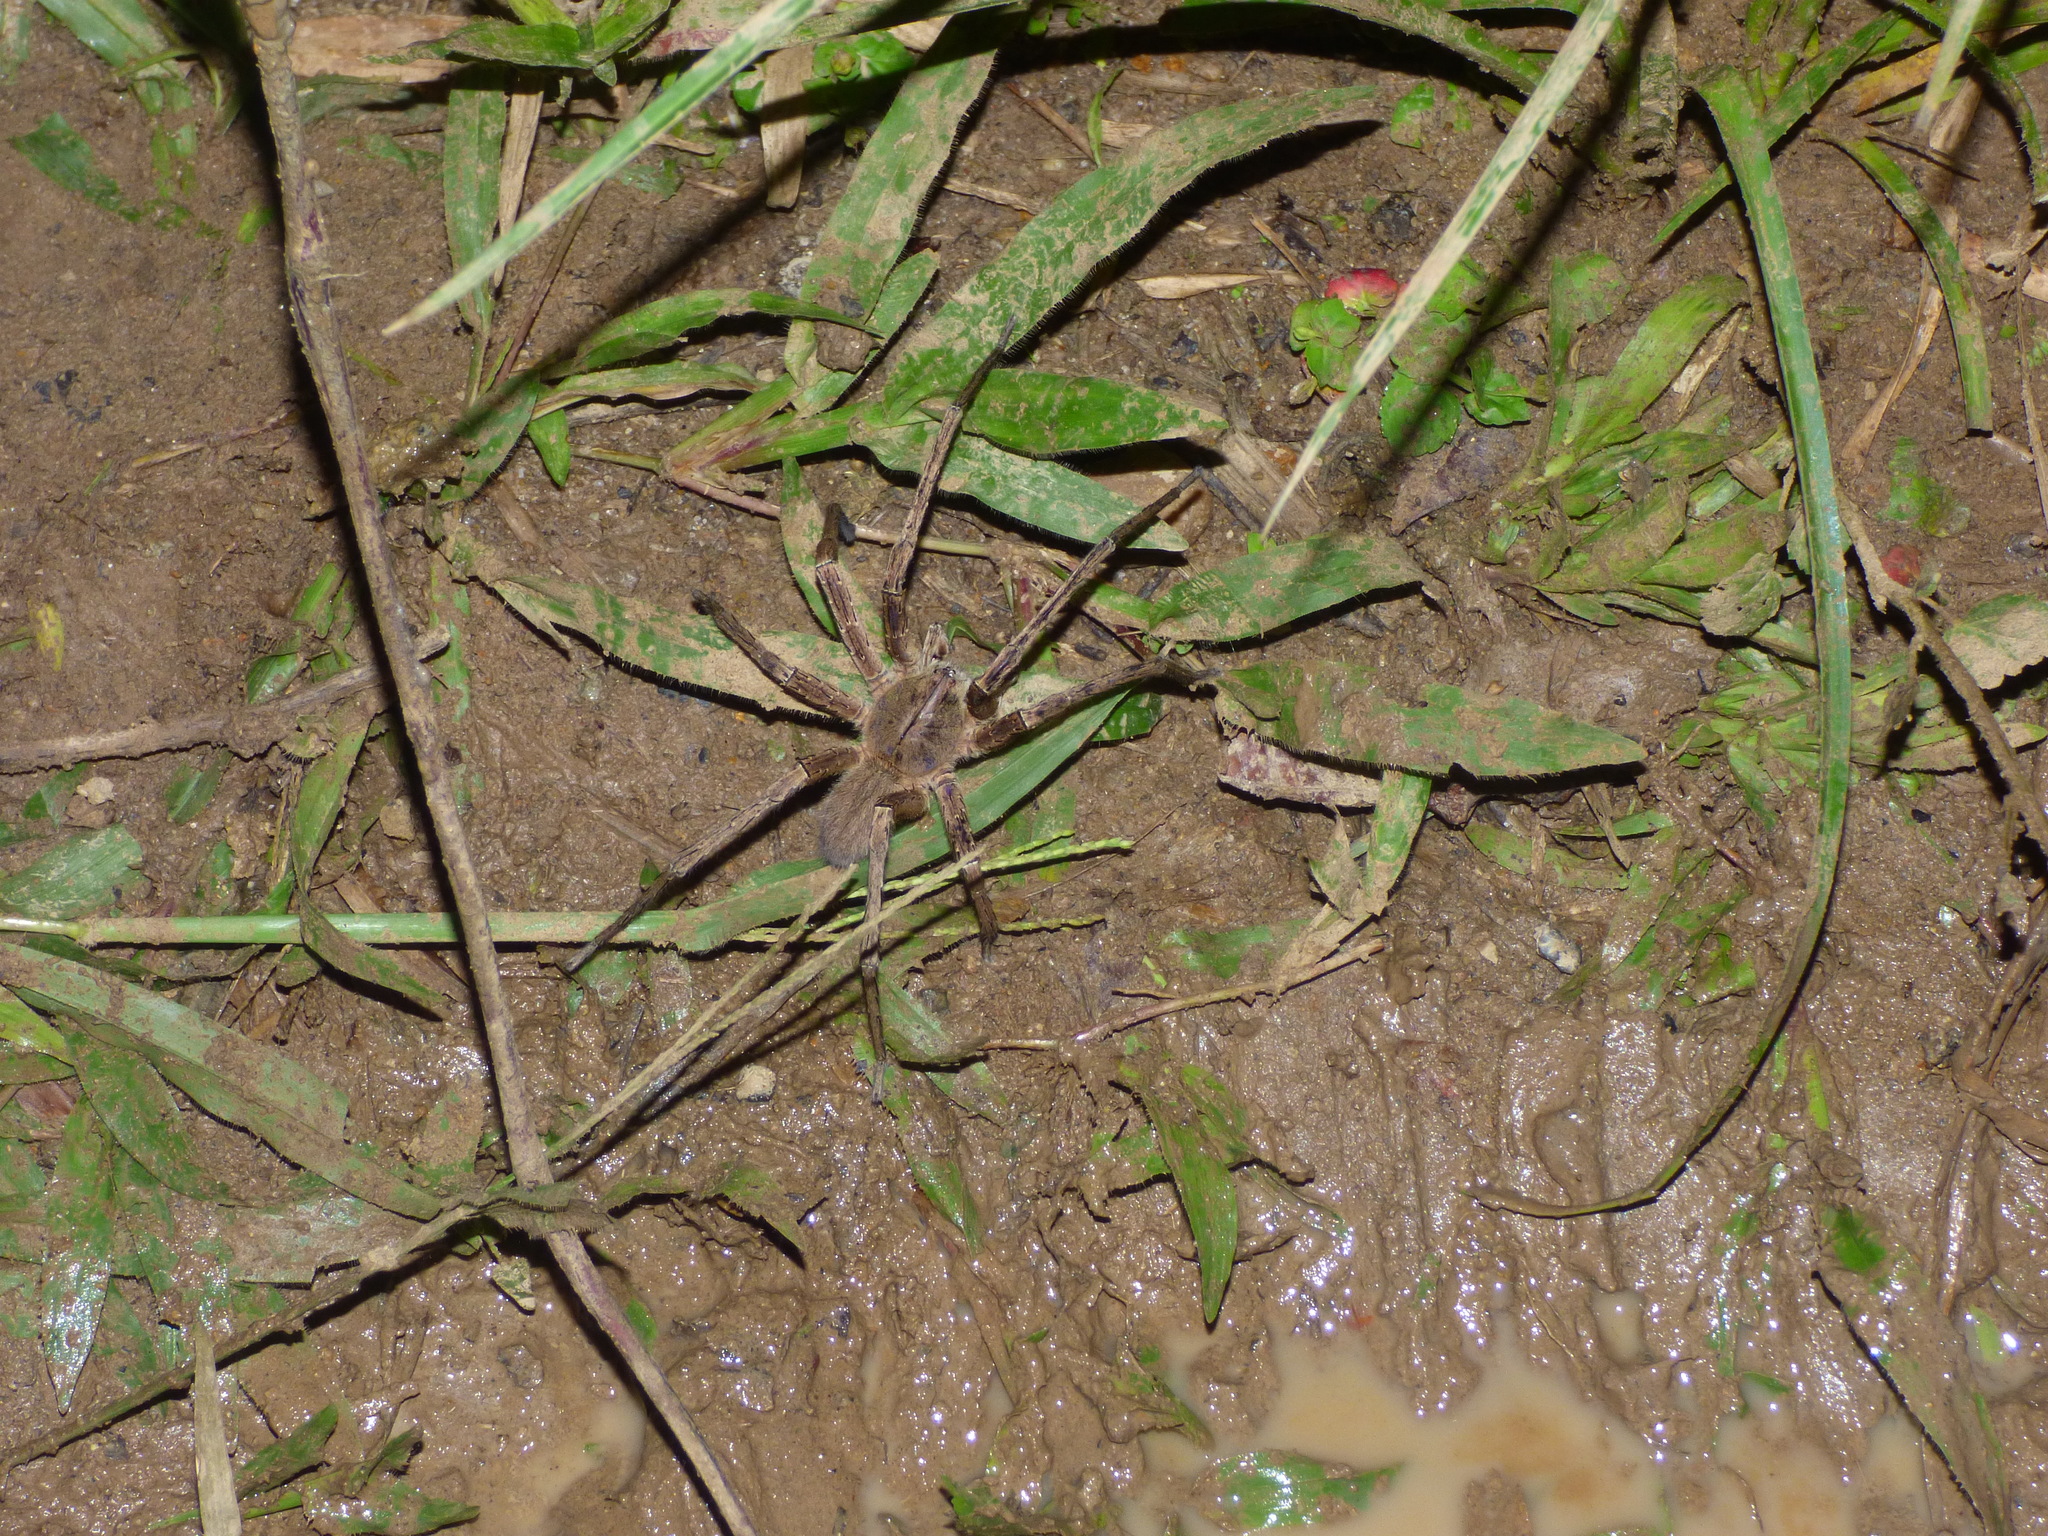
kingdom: Animalia
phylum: Arthropoda
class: Arachnida
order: Araneae
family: Ctenidae
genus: Phoneutria
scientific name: Phoneutria depilata
